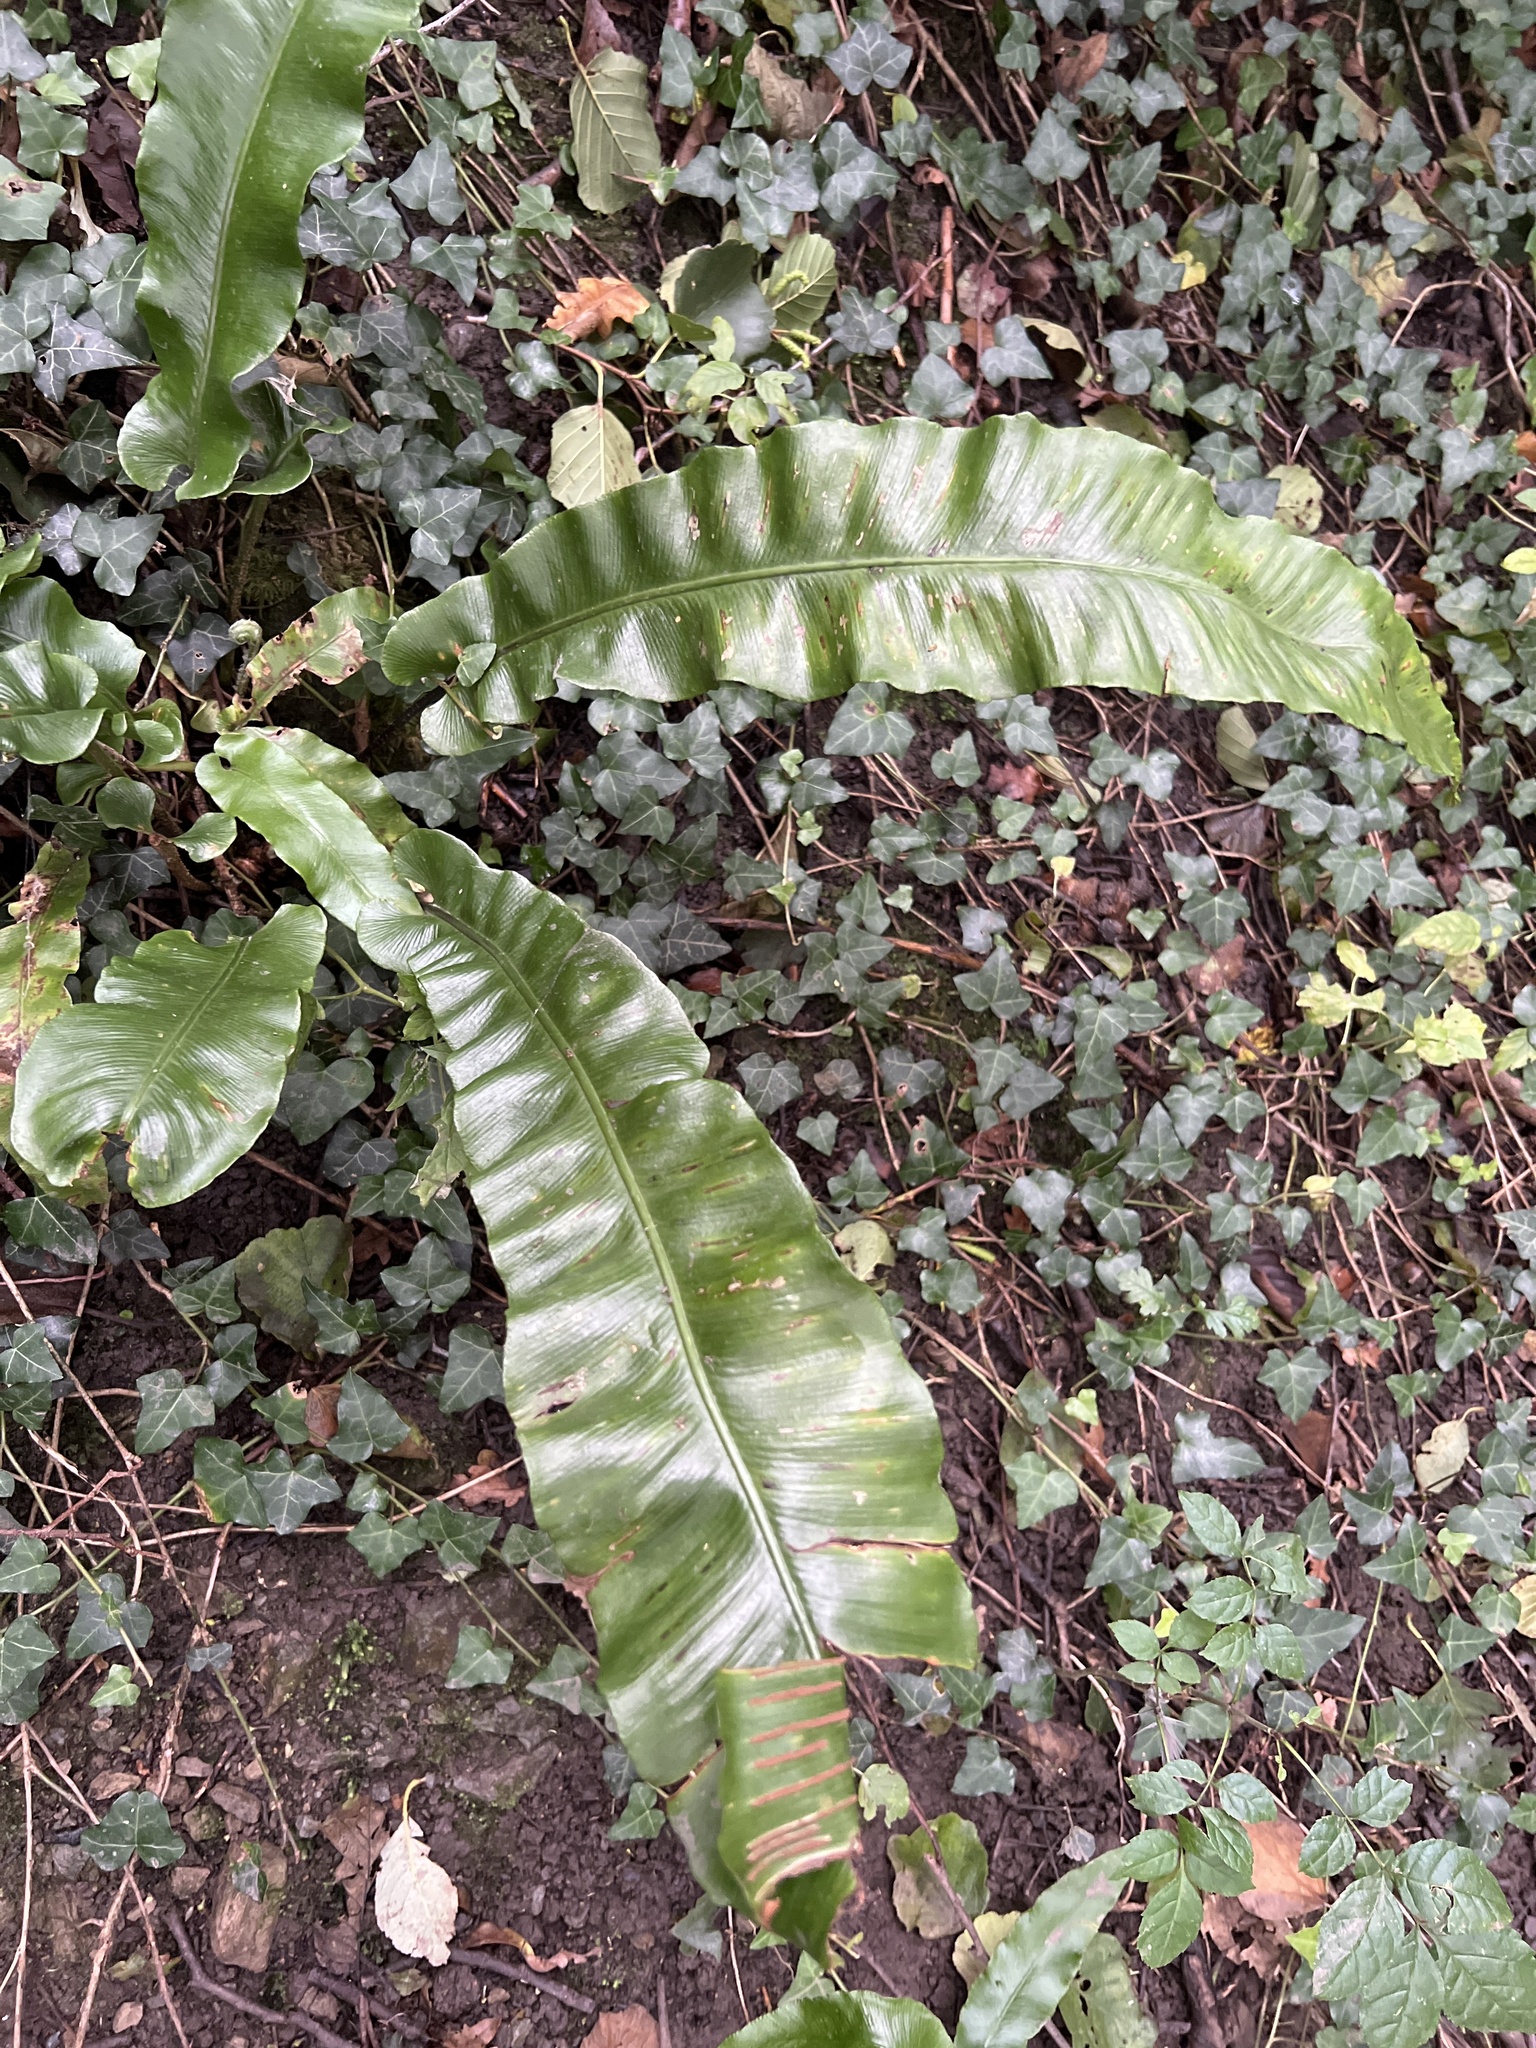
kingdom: Plantae
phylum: Tracheophyta
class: Polypodiopsida
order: Polypodiales
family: Aspleniaceae
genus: Asplenium
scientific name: Asplenium scolopendrium
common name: Hart's-tongue fern
